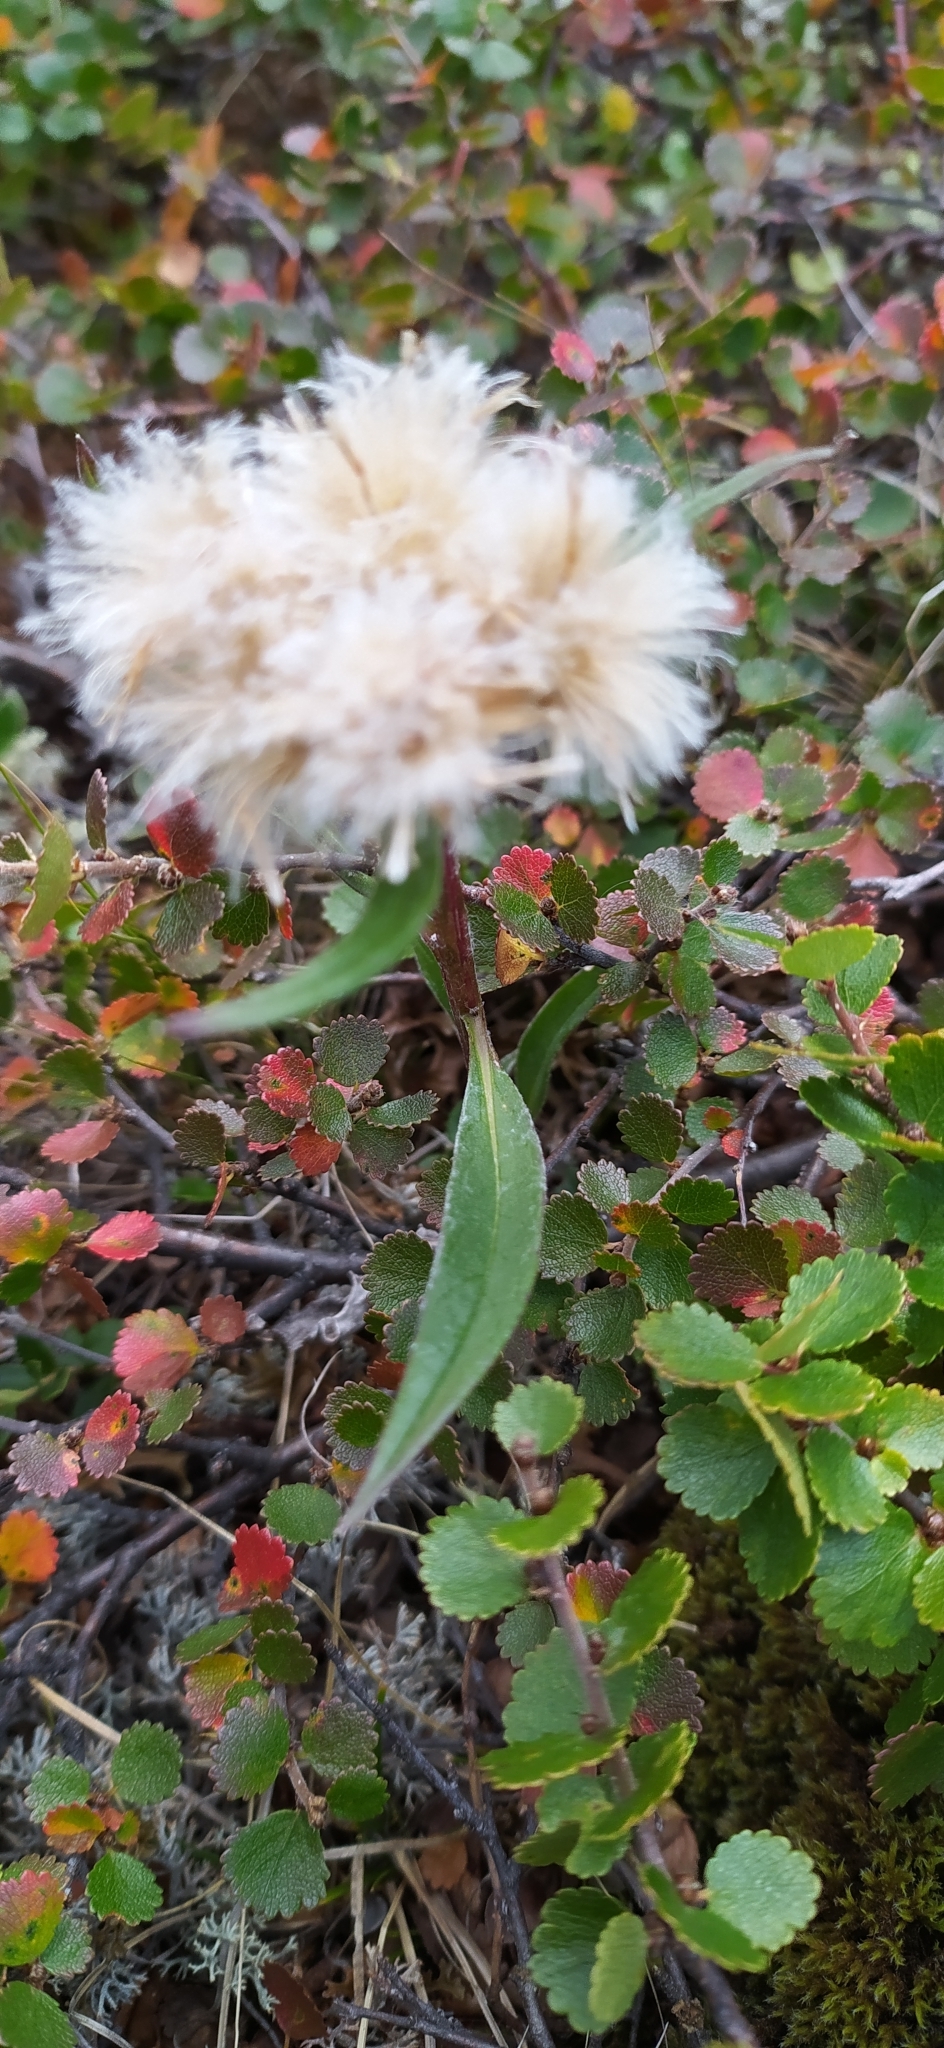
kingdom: Plantae
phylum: Tracheophyta
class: Magnoliopsida
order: Asterales
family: Asteraceae
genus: Saussurea
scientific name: Saussurea alpina
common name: Alpine saw-wort
